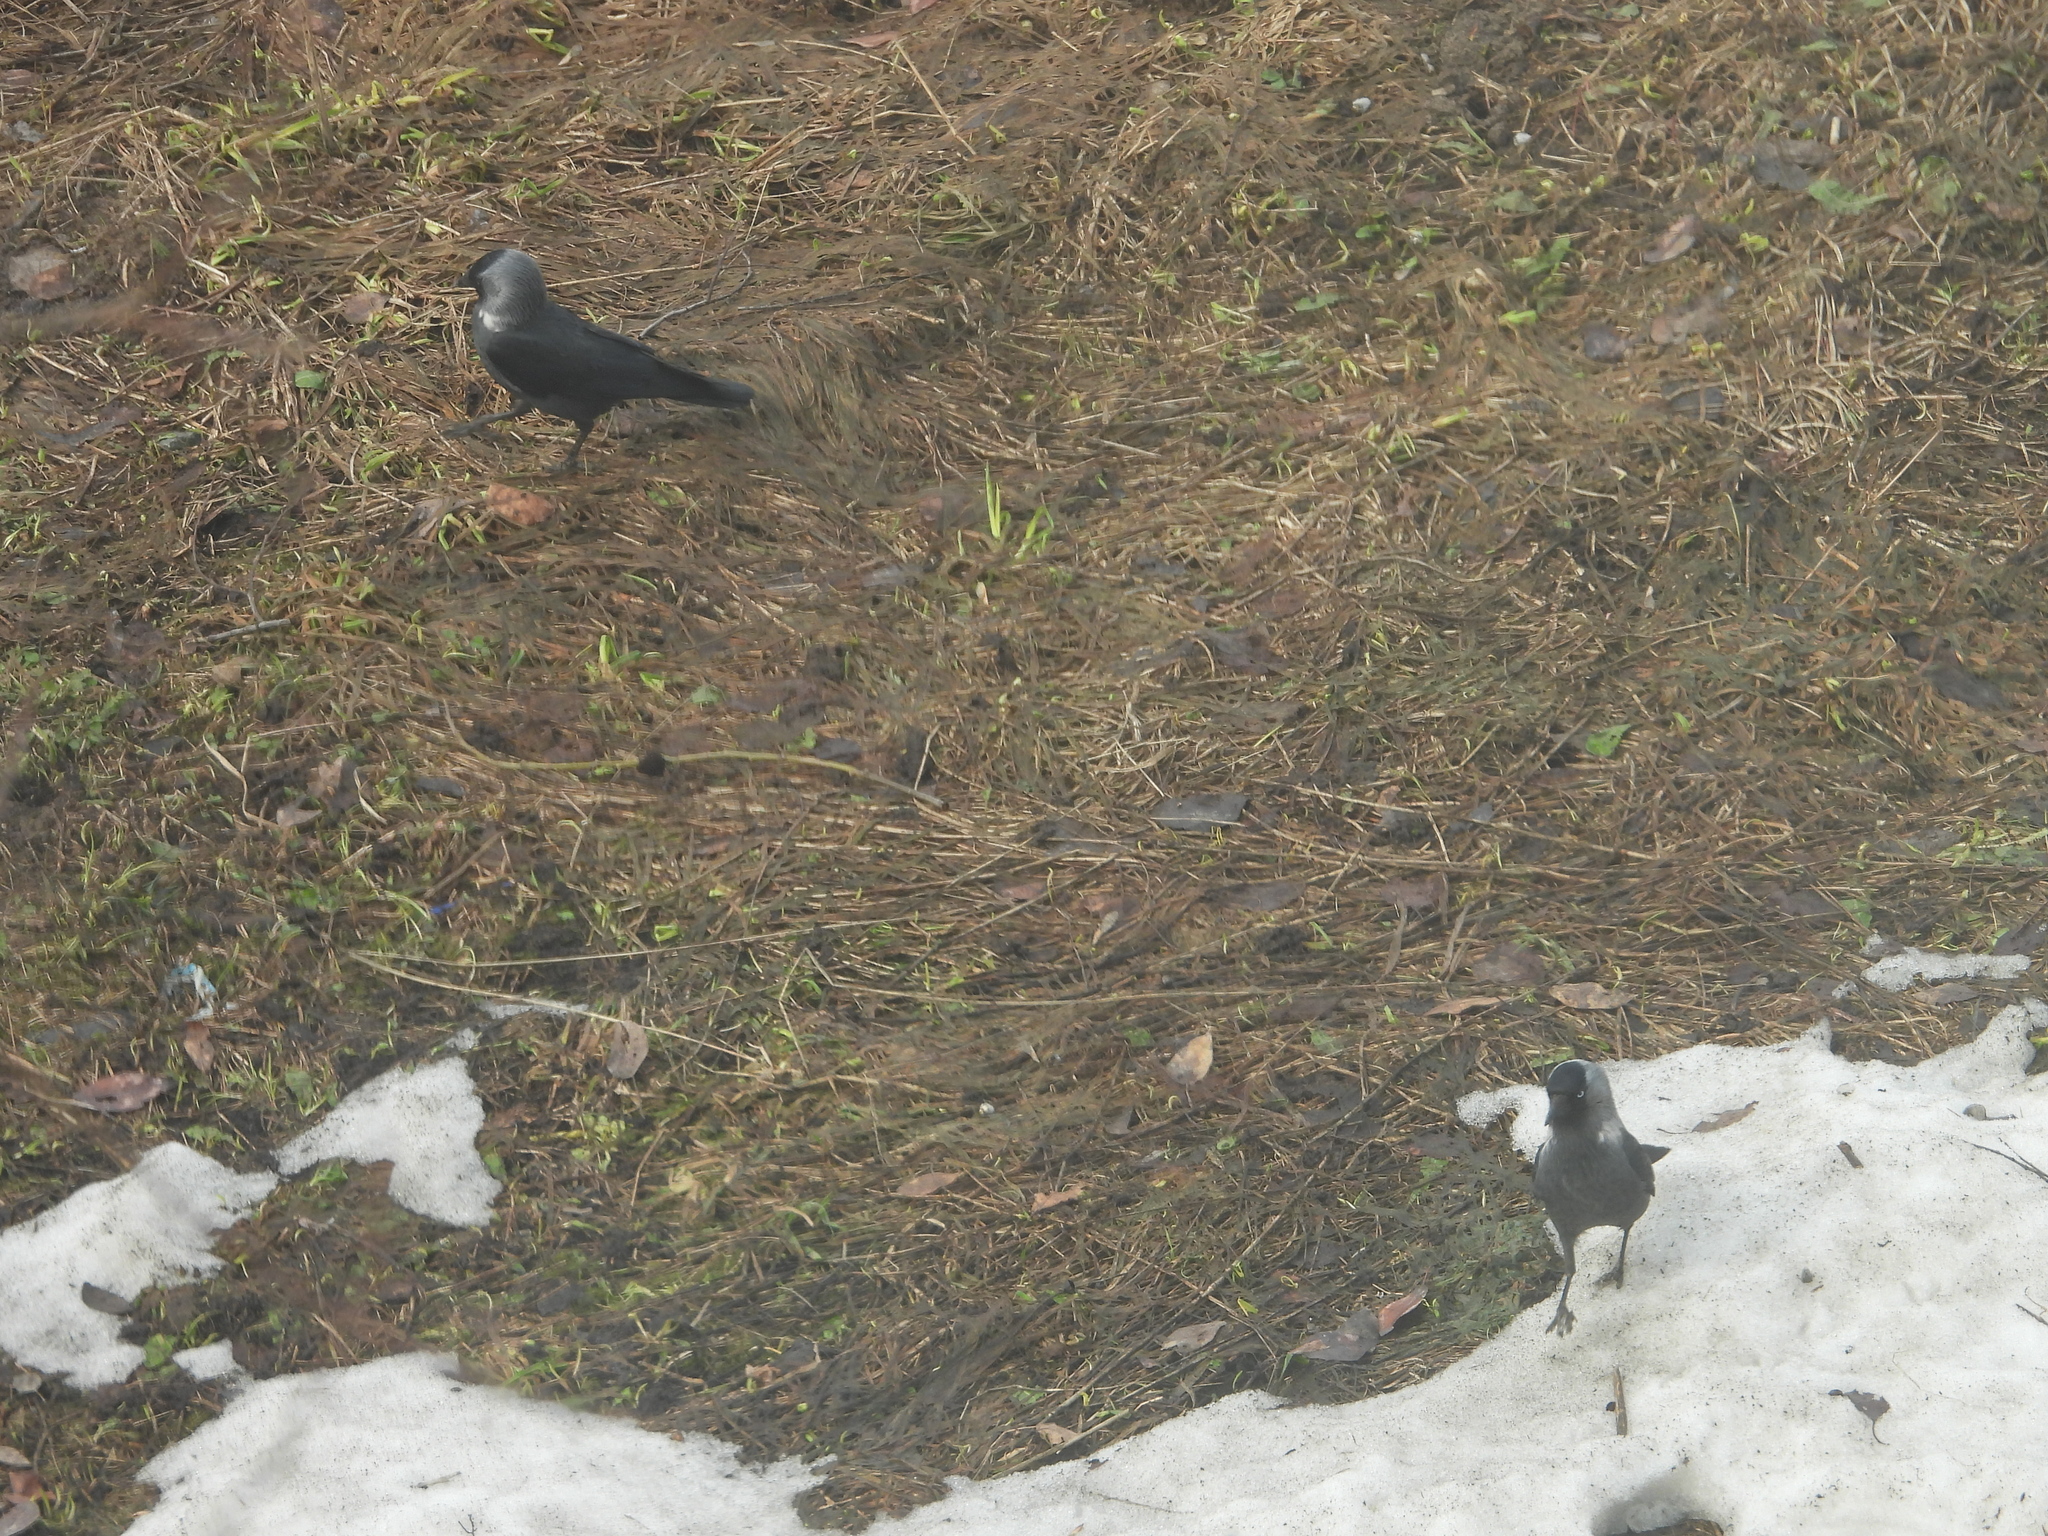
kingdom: Animalia
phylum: Chordata
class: Aves
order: Passeriformes
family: Corvidae
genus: Coloeus
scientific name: Coloeus monedula
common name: Western jackdaw
